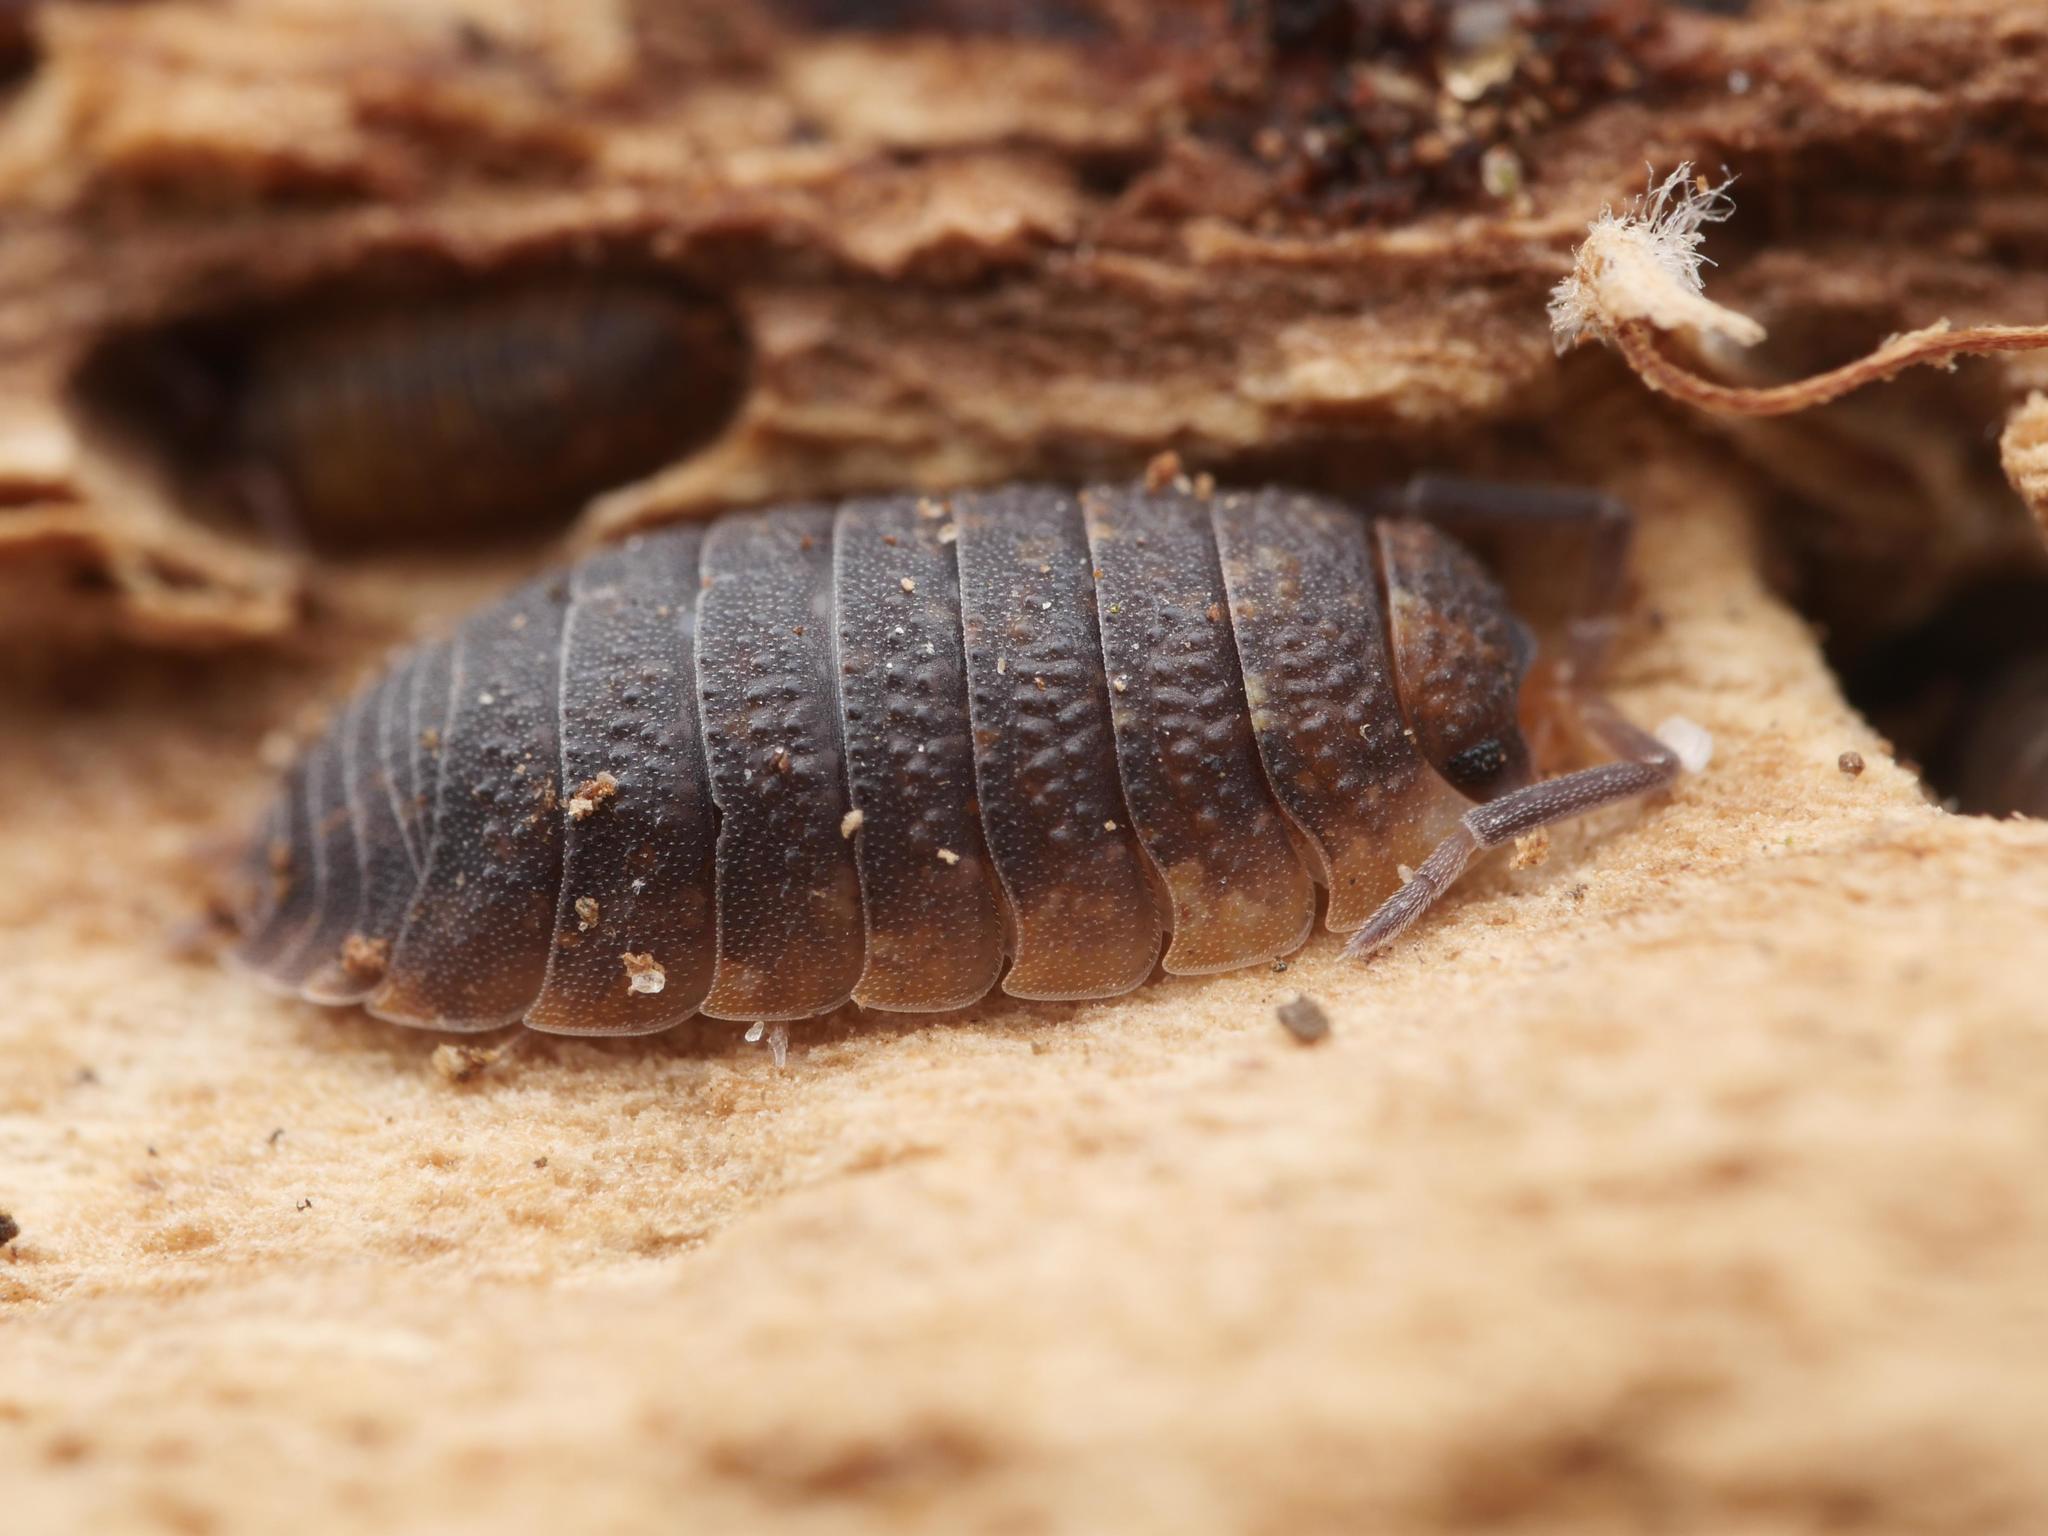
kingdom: Animalia
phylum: Arthropoda
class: Malacostraca
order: Isopoda
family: Porcellionidae
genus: Porcellio
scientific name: Porcellio scaber
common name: Common rough woodlouse
